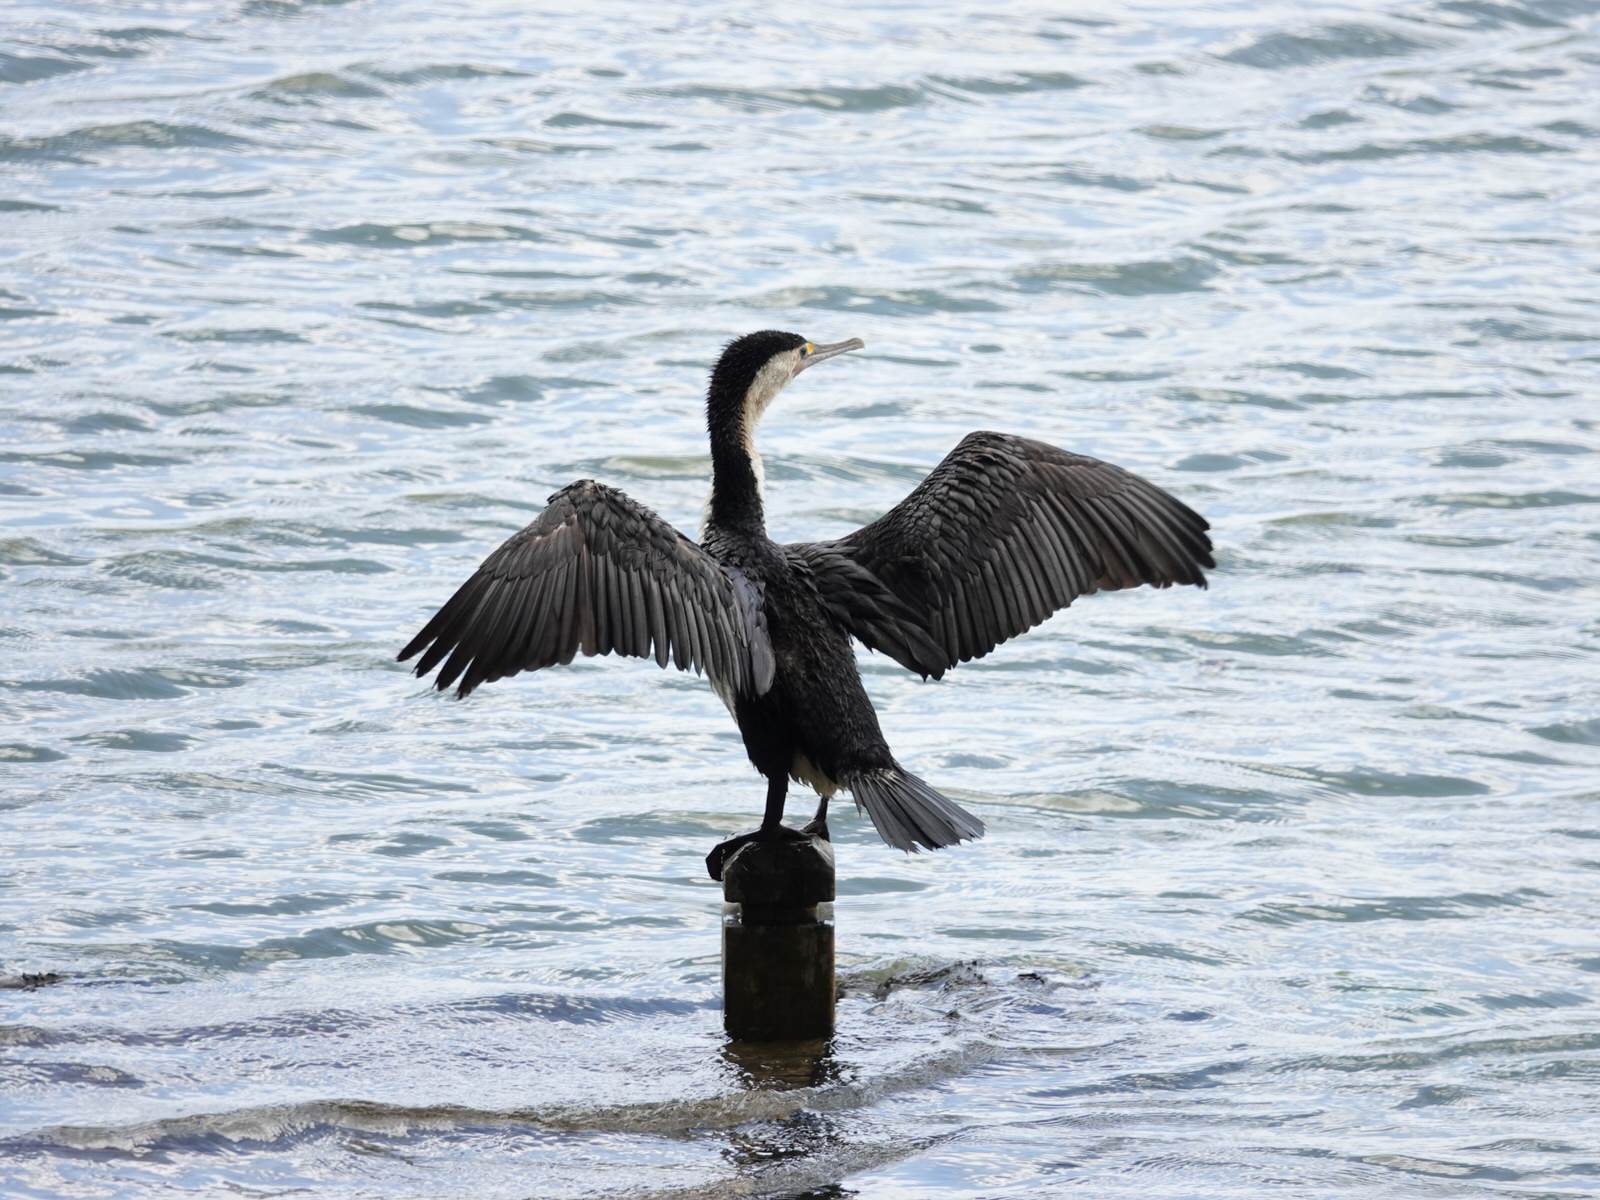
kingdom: Animalia
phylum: Chordata
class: Aves
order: Suliformes
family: Phalacrocoracidae
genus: Phalacrocorax
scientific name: Phalacrocorax varius
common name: Pied cormorant
